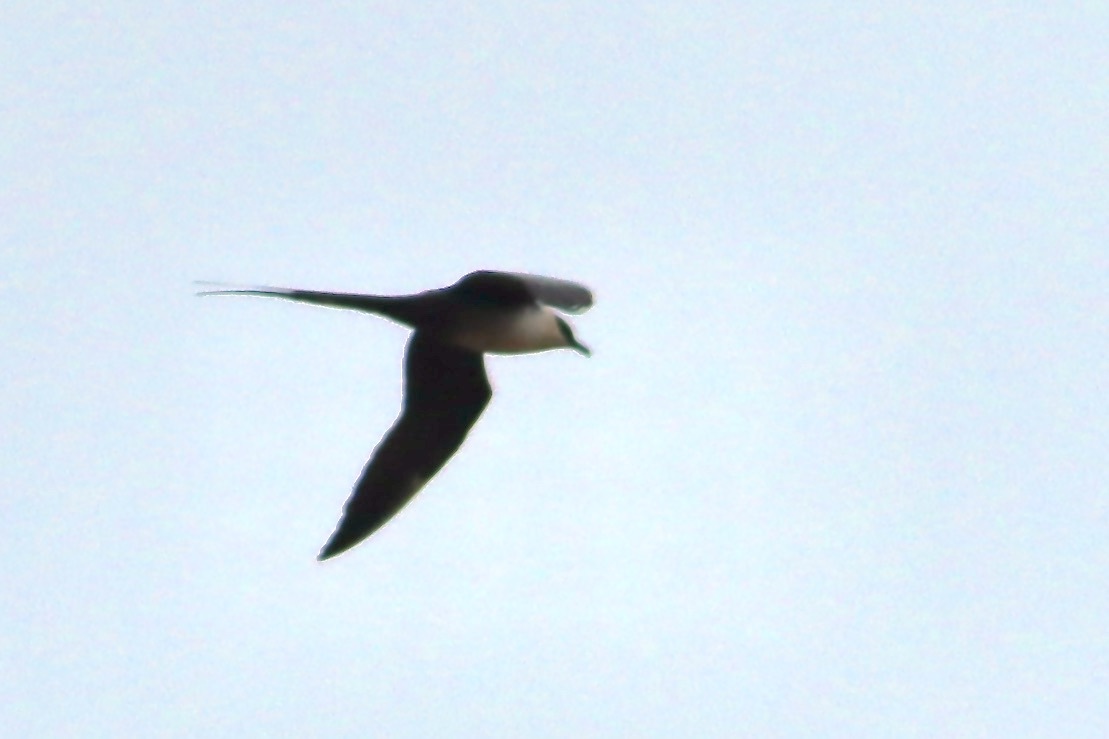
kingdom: Animalia
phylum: Chordata
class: Aves
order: Charadriiformes
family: Stercorariidae
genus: Stercorarius
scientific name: Stercorarius longicaudus
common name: Long-tailed jaeger
